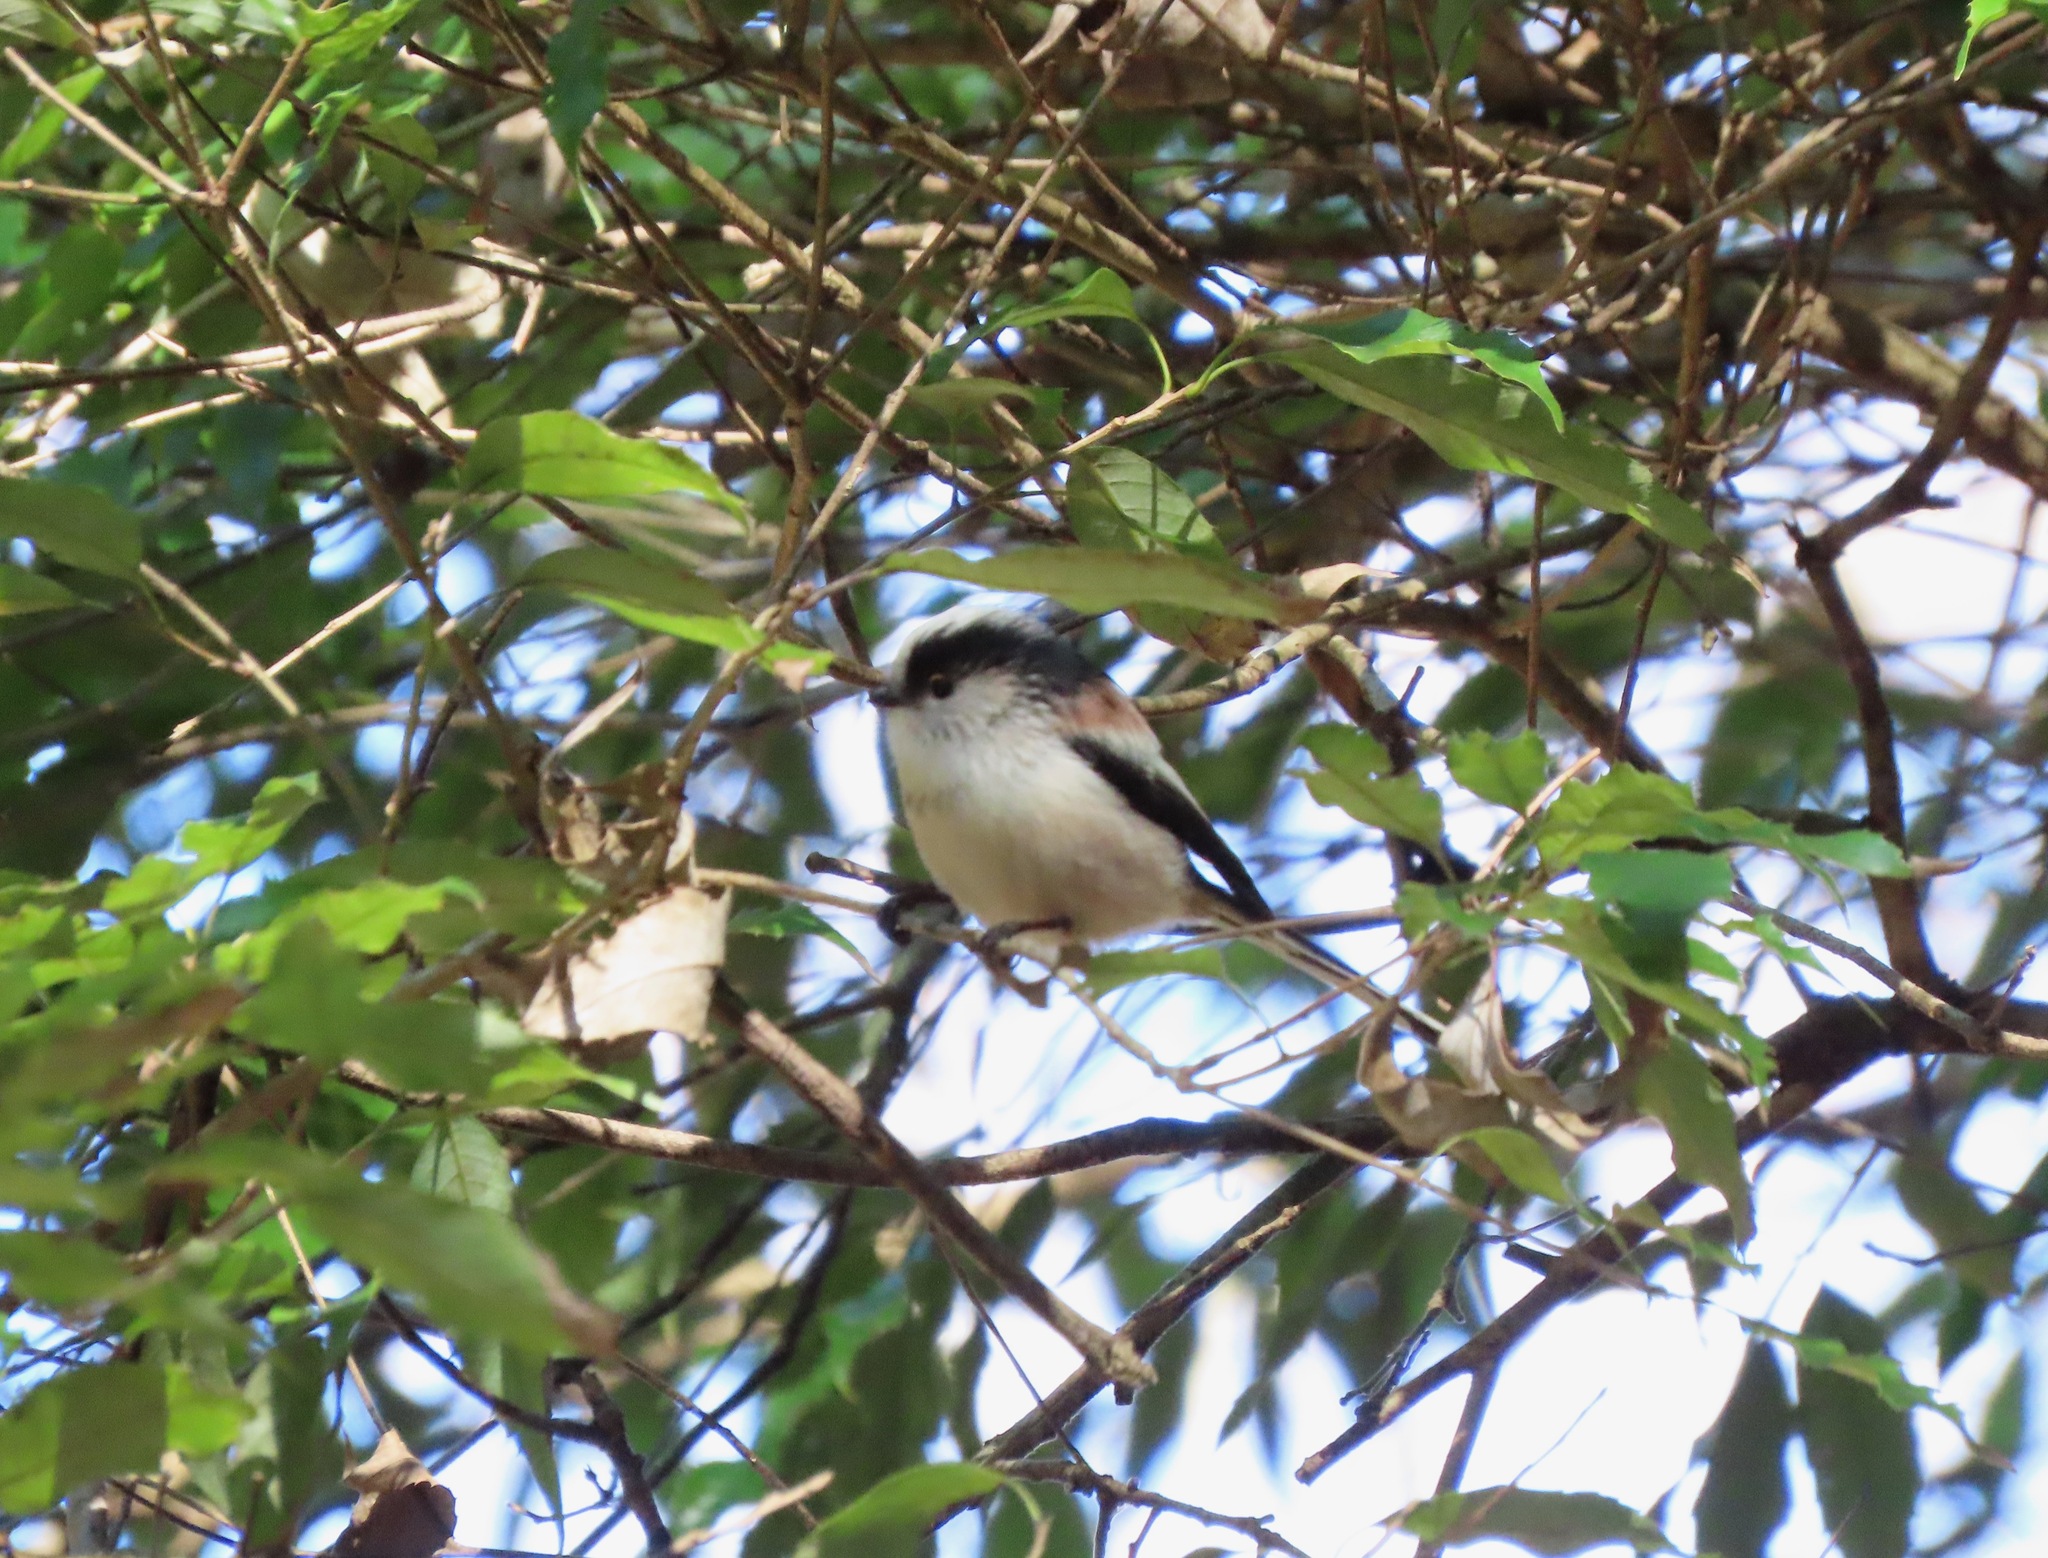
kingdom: Animalia
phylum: Chordata
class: Aves
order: Passeriformes
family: Aegithalidae
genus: Aegithalos
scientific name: Aegithalos caudatus
